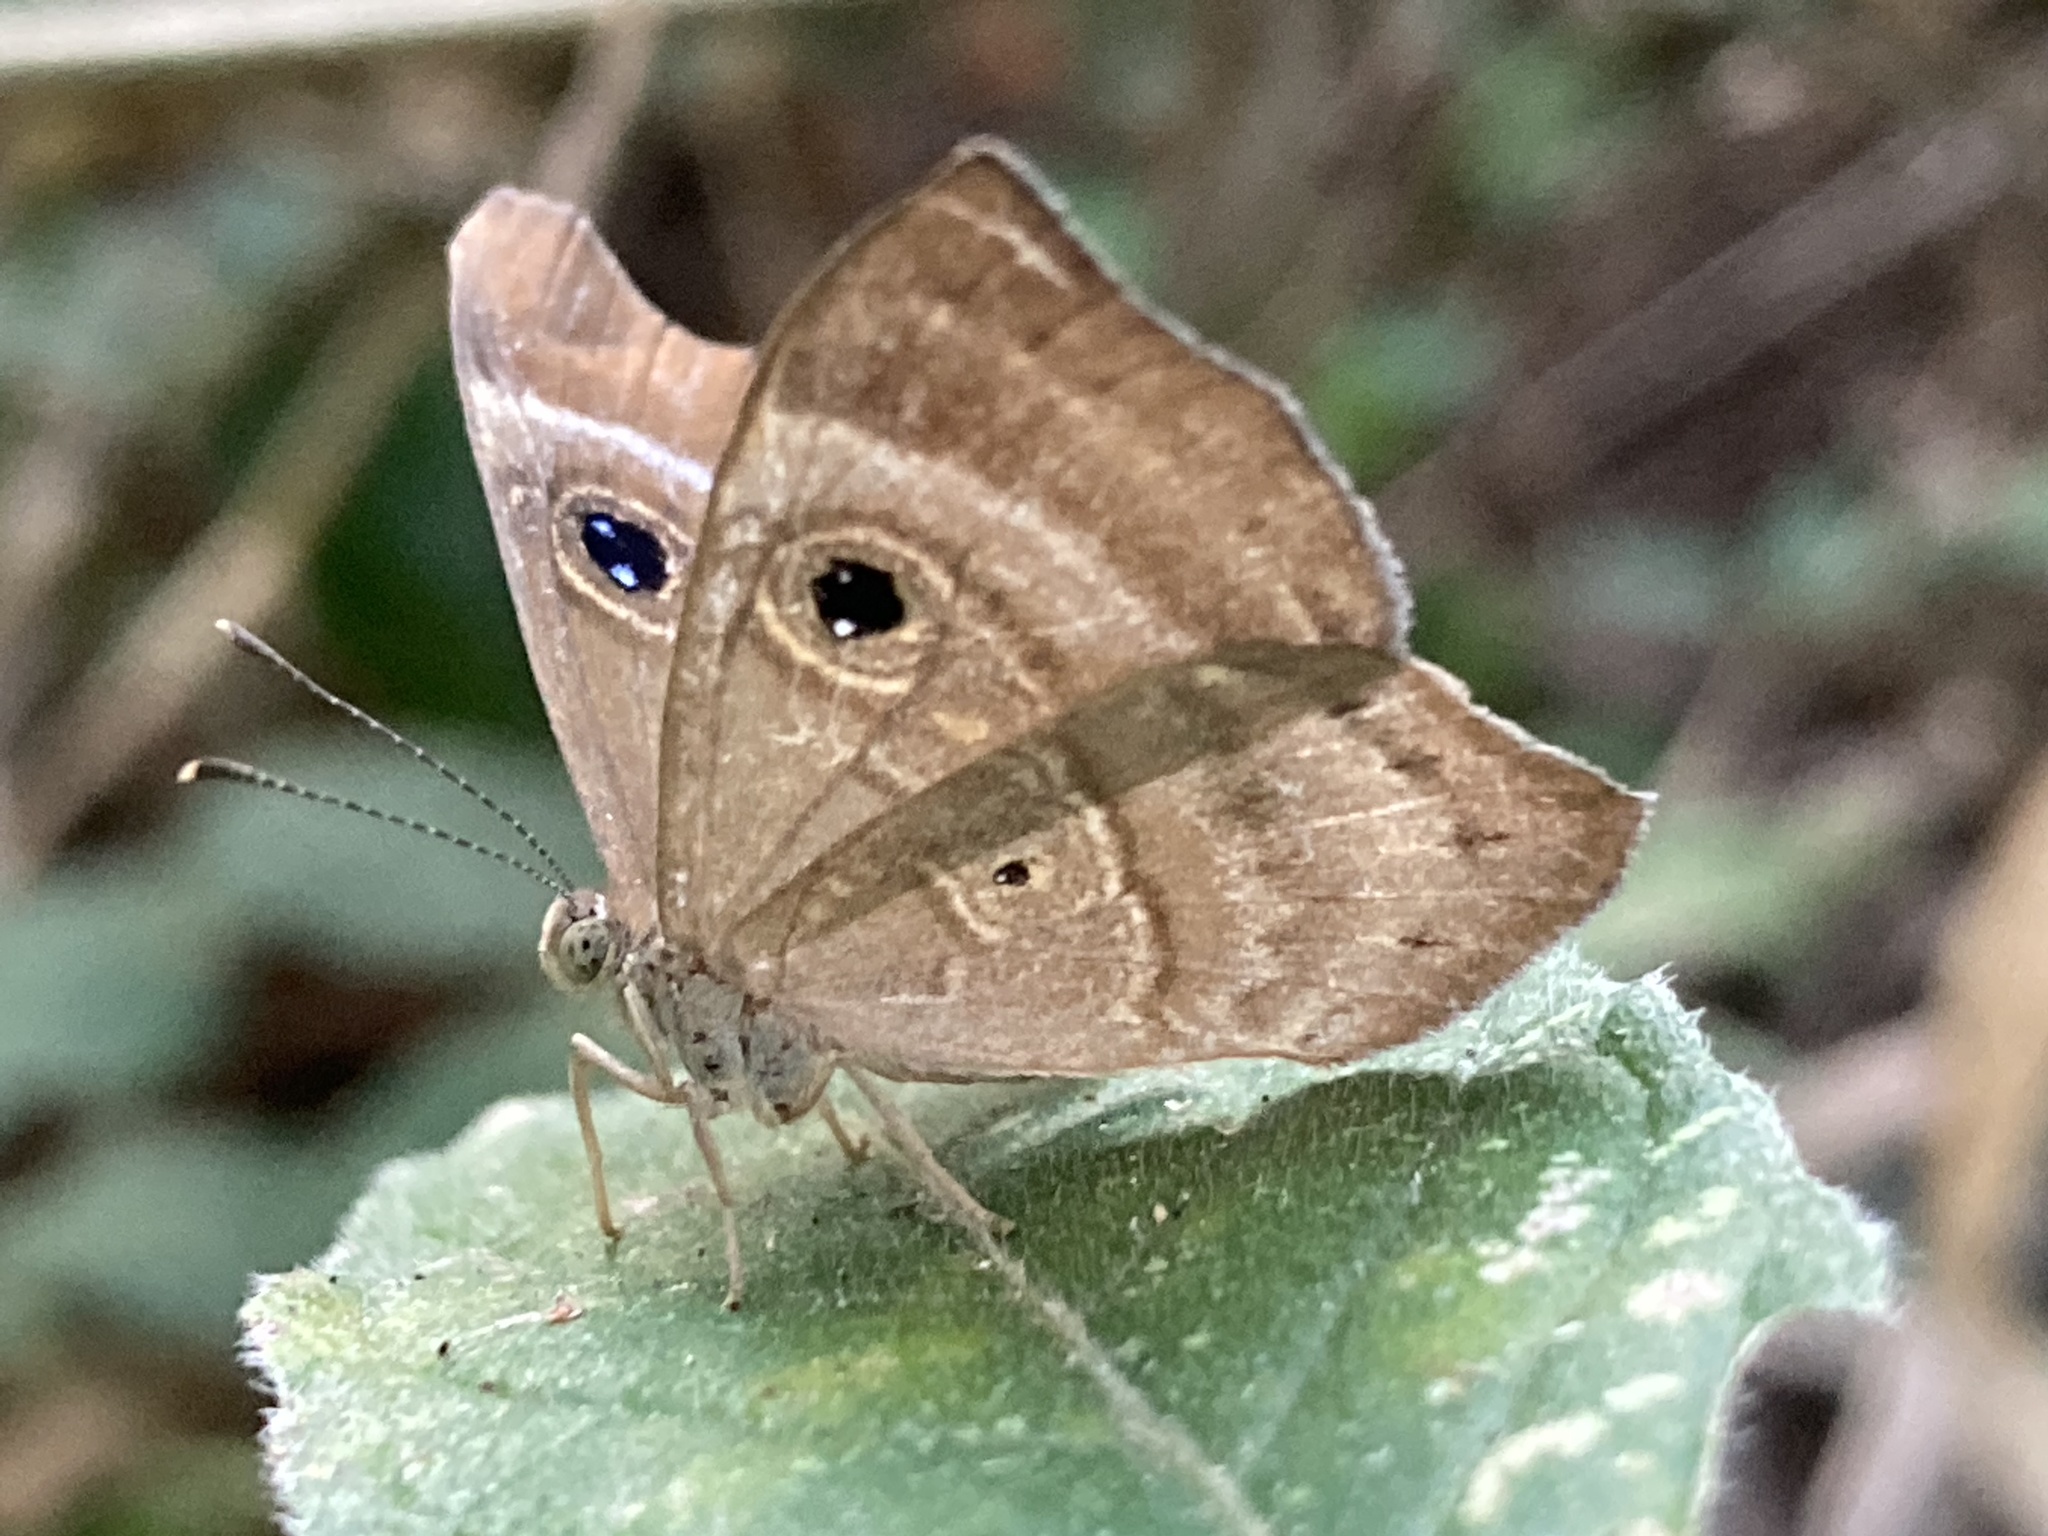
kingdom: Animalia
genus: Mesosemia
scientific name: Mesosemia lamachus
